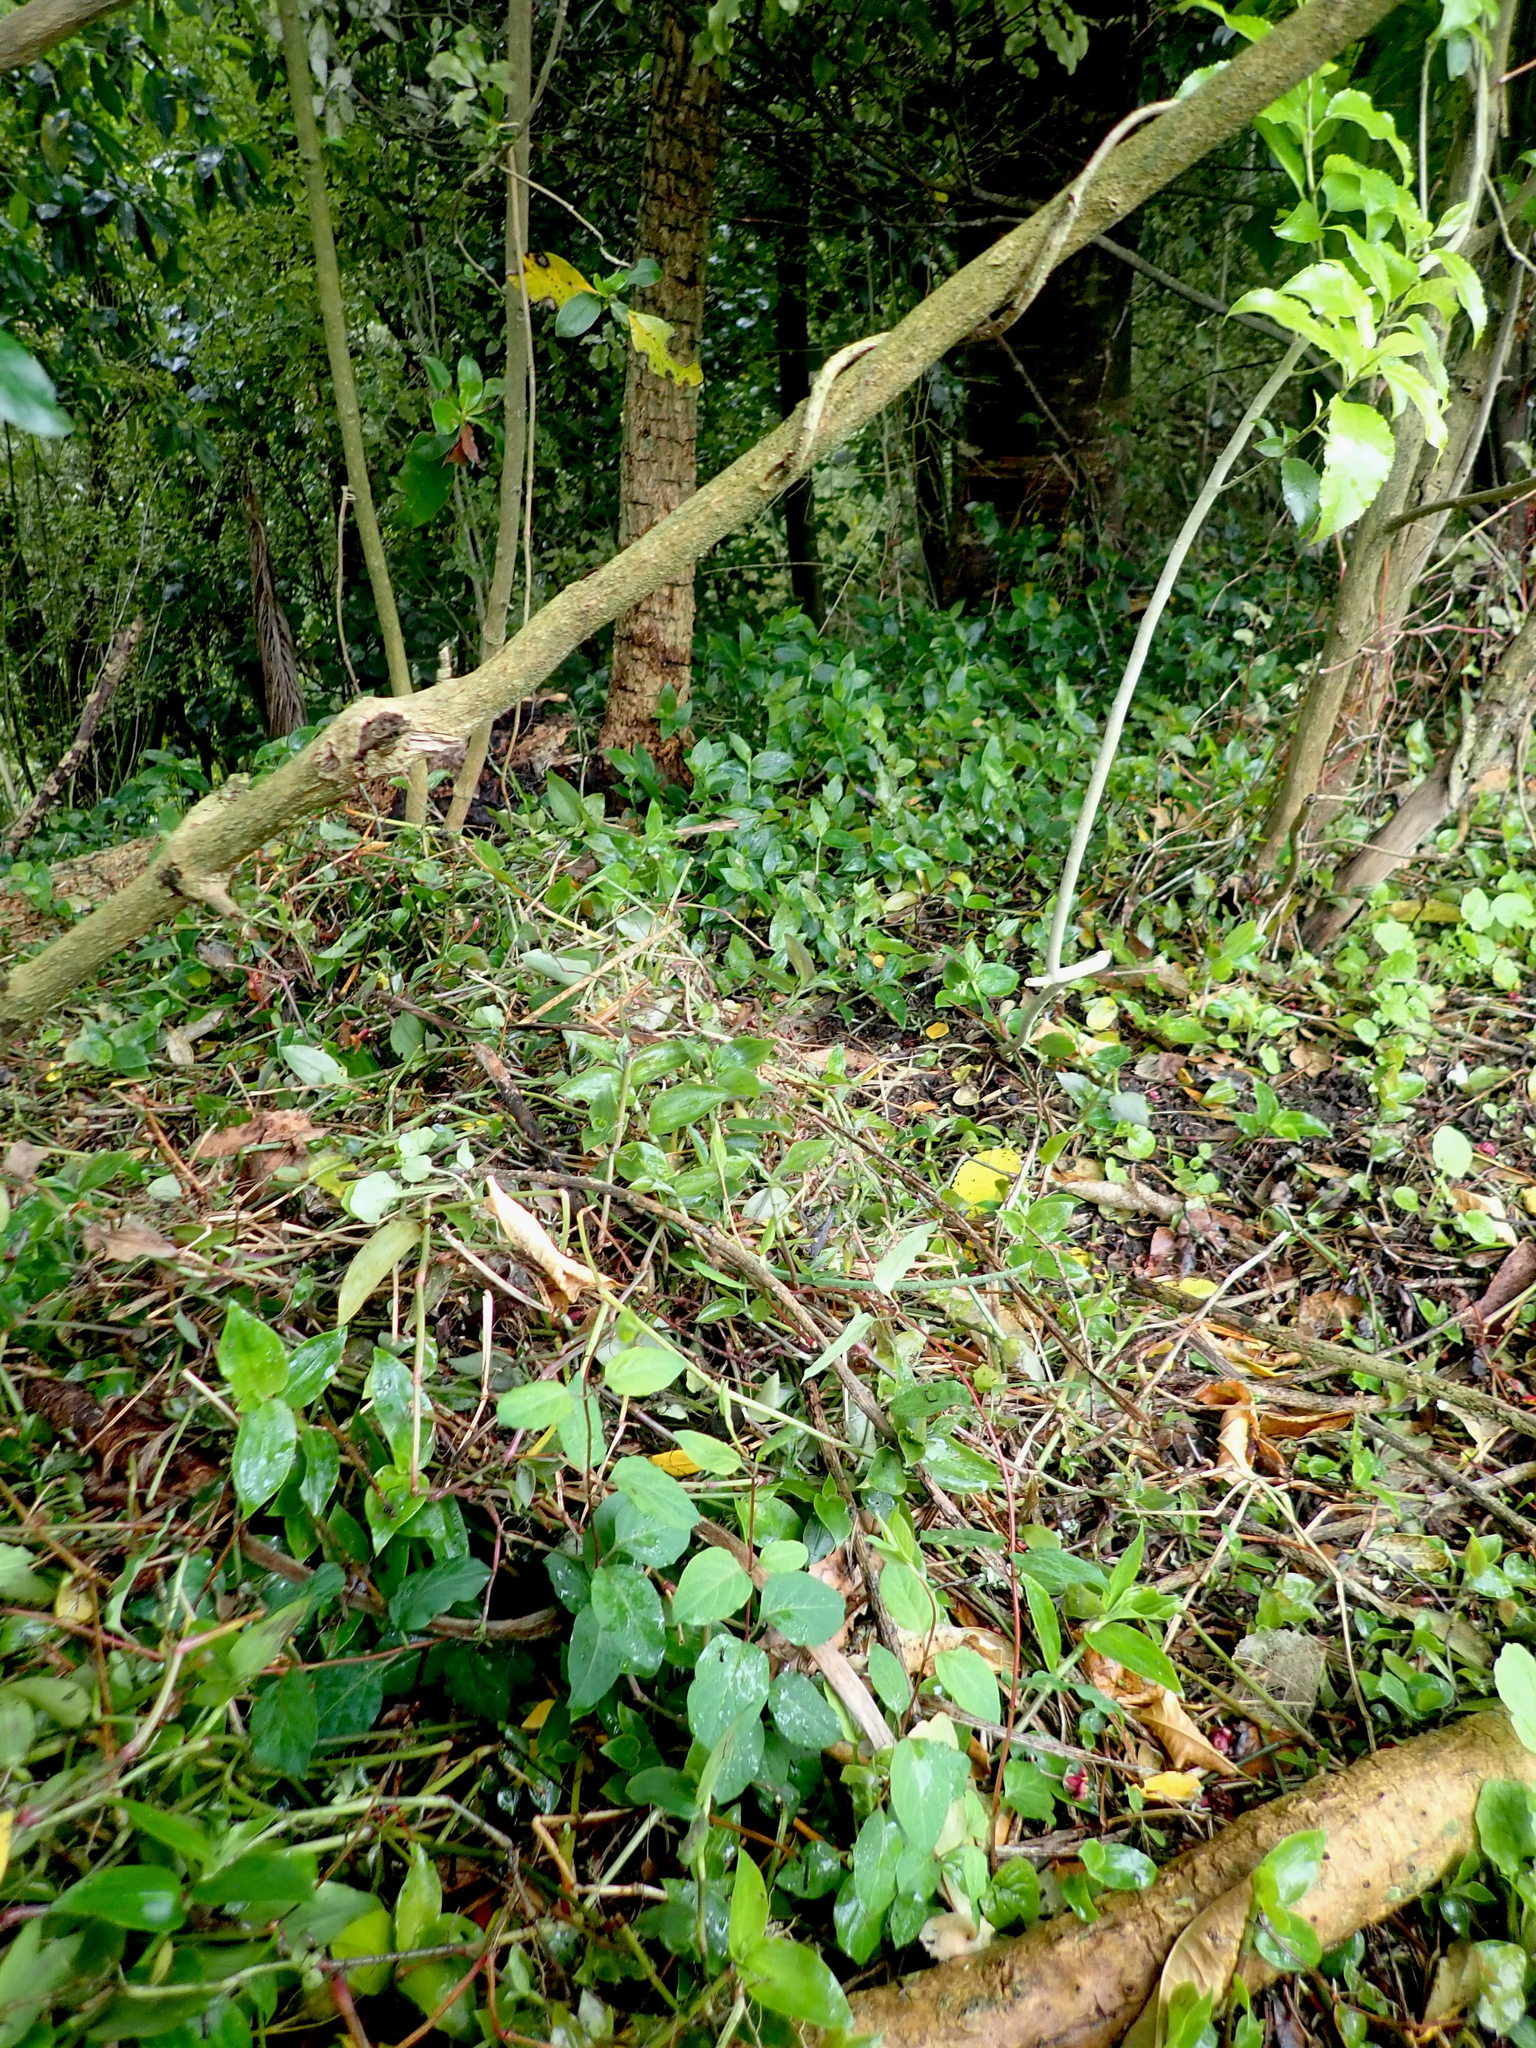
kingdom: Plantae
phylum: Tracheophyta
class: Magnoliopsida
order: Dipsacales
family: Caprifoliaceae
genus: Lonicera
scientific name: Lonicera japonica
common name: Japanese honeysuckle
